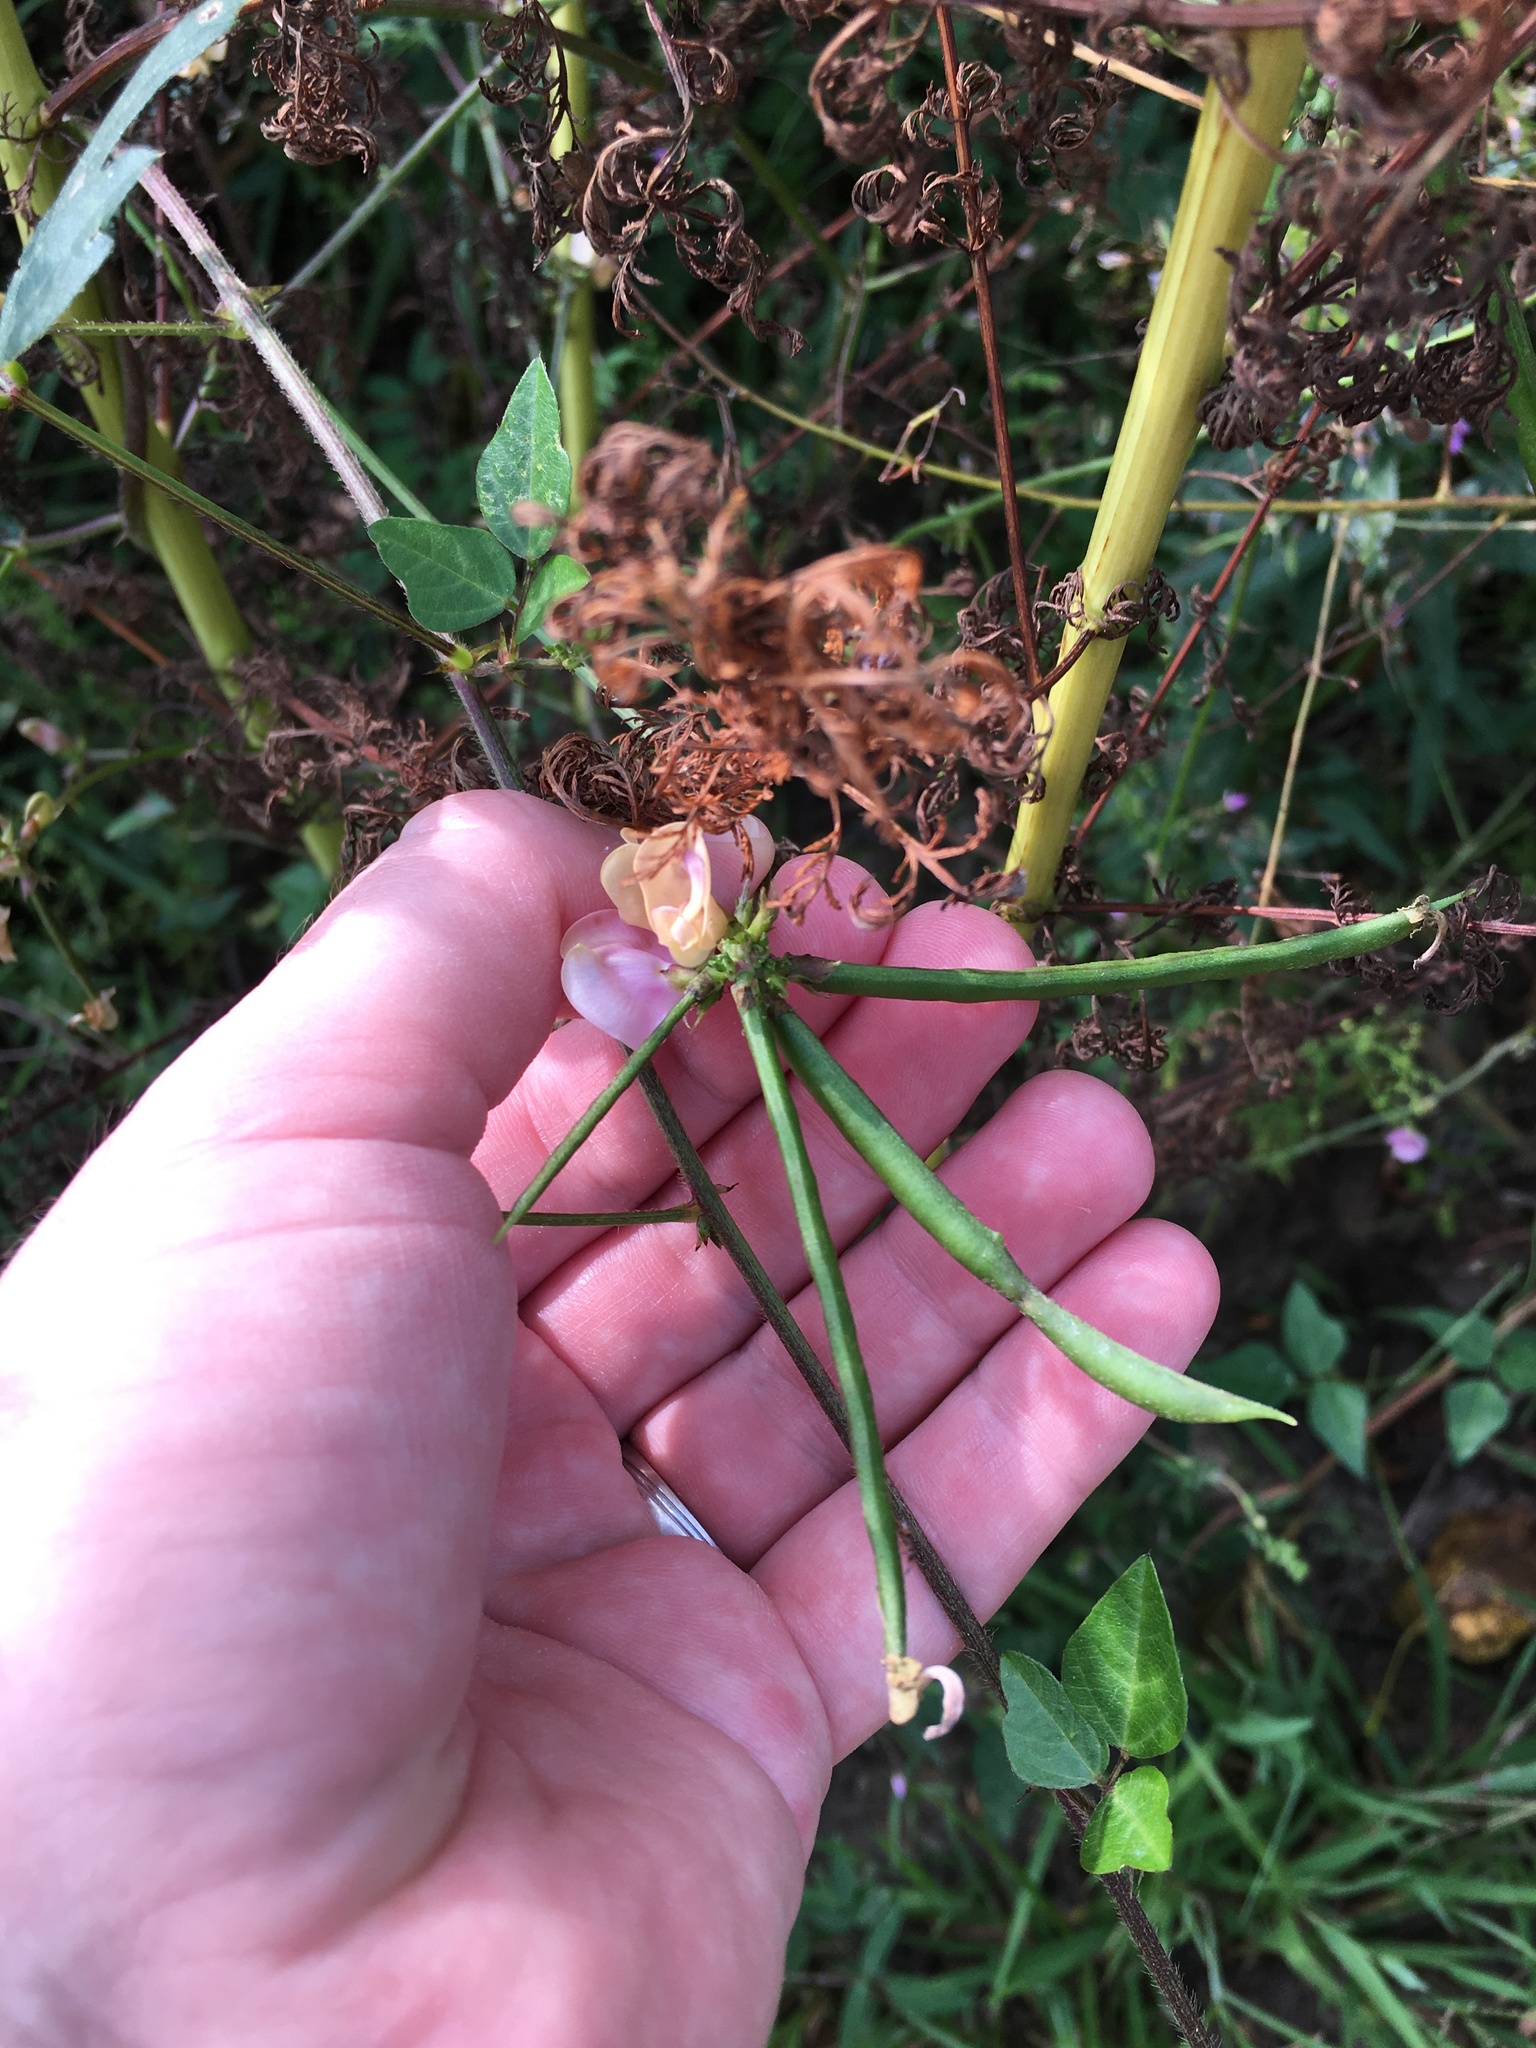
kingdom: Plantae
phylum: Tracheophyta
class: Magnoliopsida
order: Fabales
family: Fabaceae
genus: Strophostyles
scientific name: Strophostyles helvola
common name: Trailing wild bean
